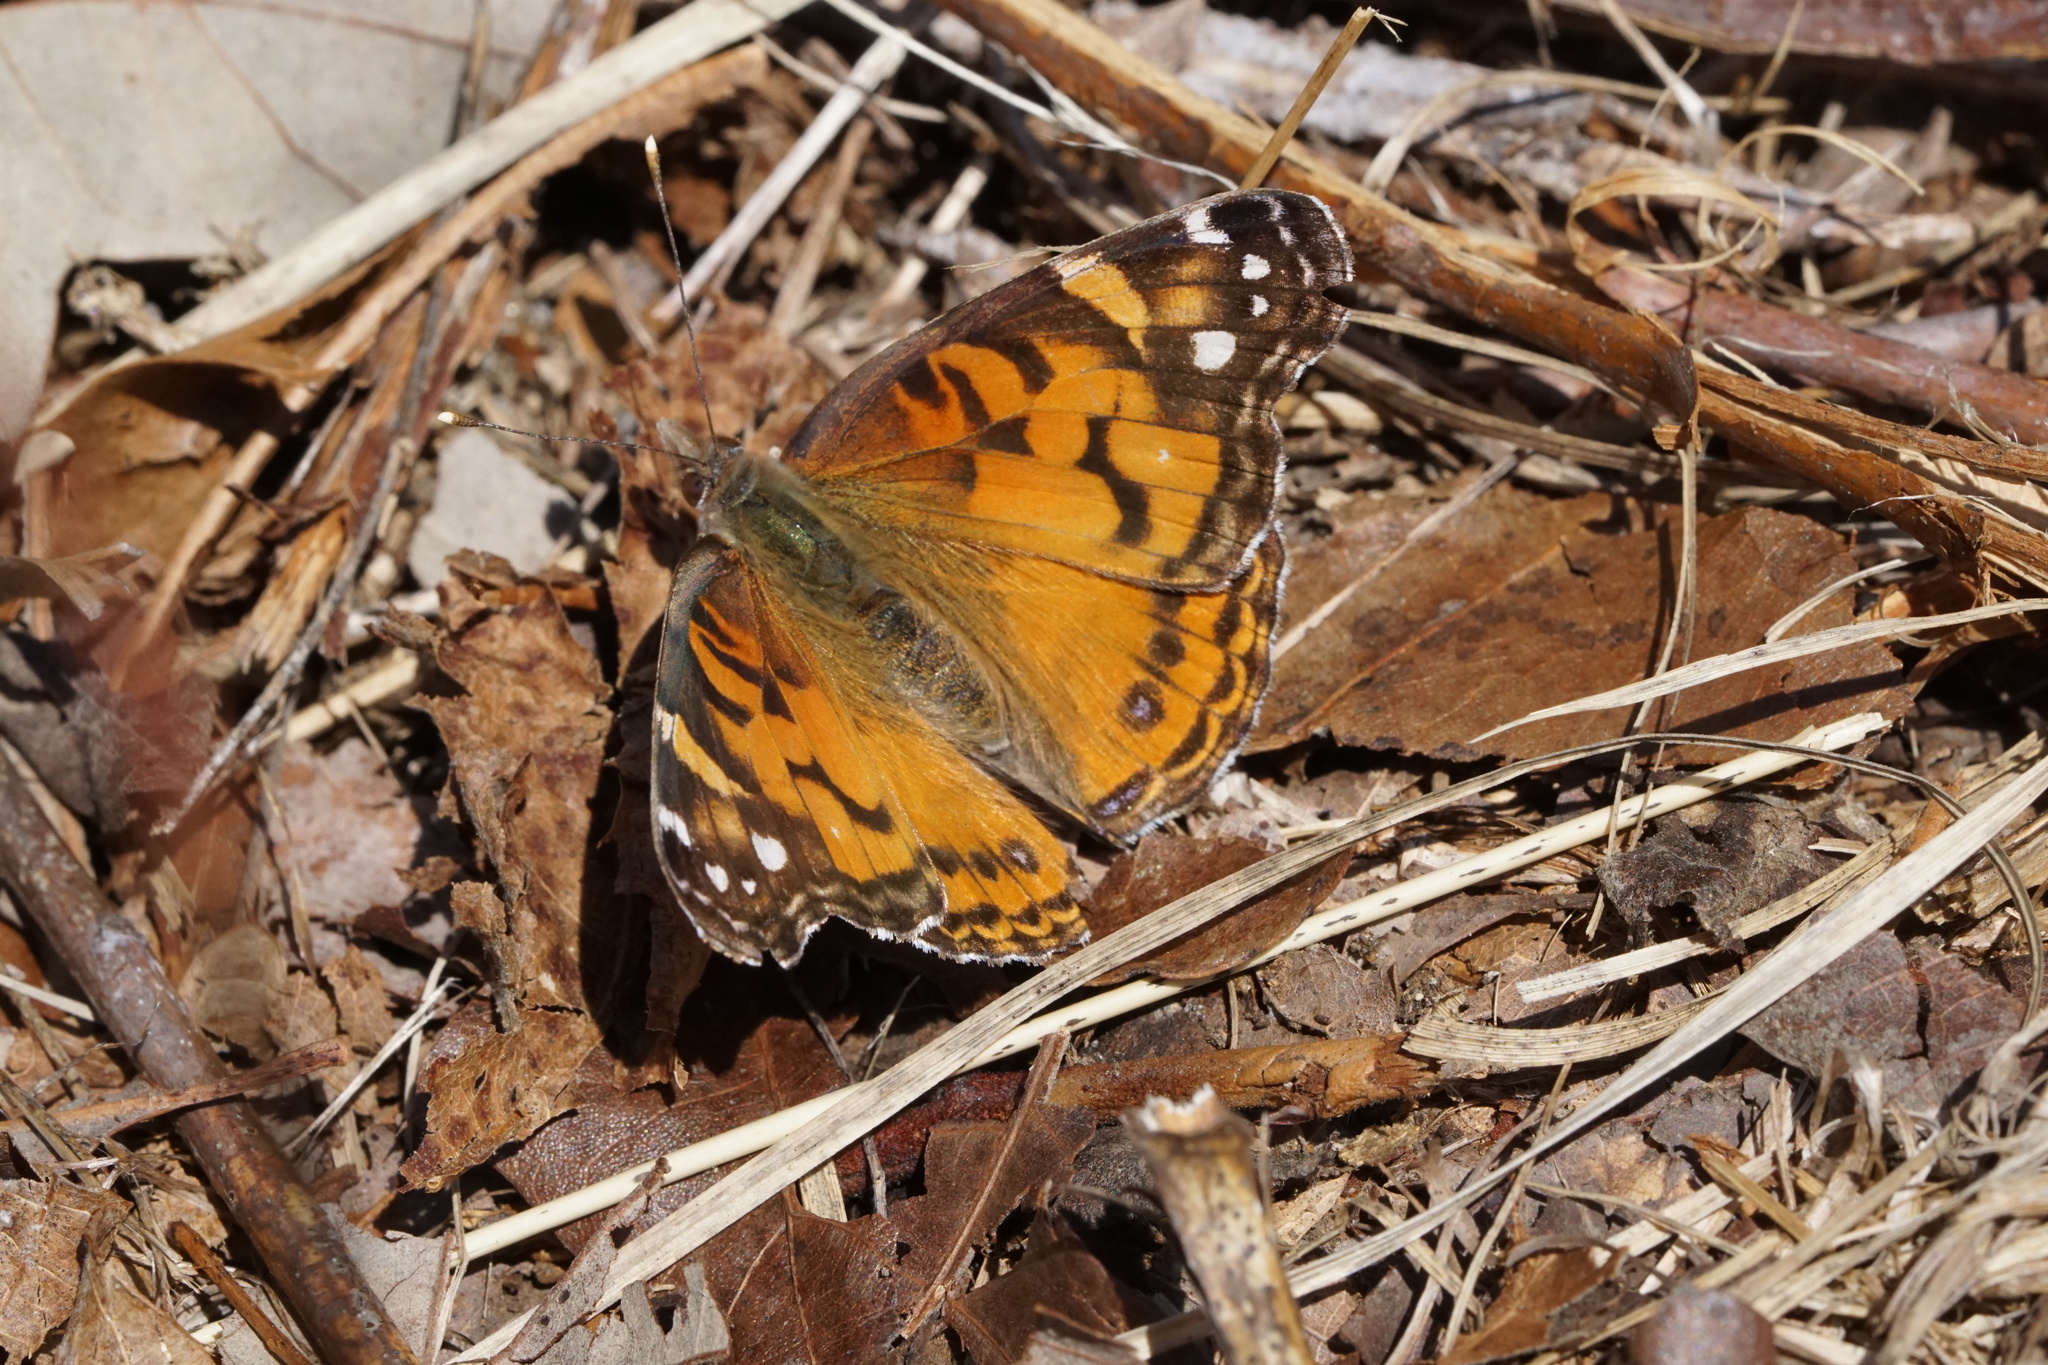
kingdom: Animalia
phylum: Arthropoda
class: Insecta
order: Lepidoptera
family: Nymphalidae
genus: Vanessa
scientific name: Vanessa virginiensis
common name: American lady
